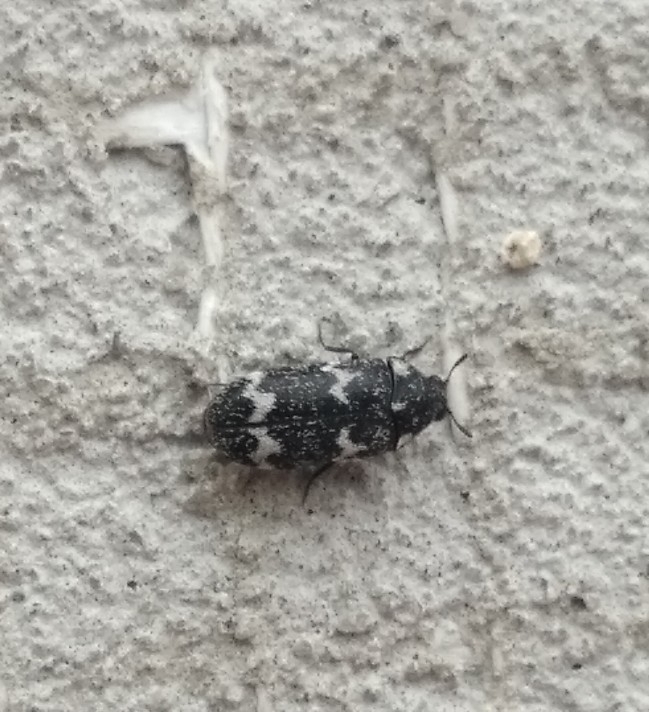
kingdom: Animalia
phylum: Arthropoda
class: Insecta
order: Coleoptera
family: Dermestidae
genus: Megatoma
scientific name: Megatoma undata
